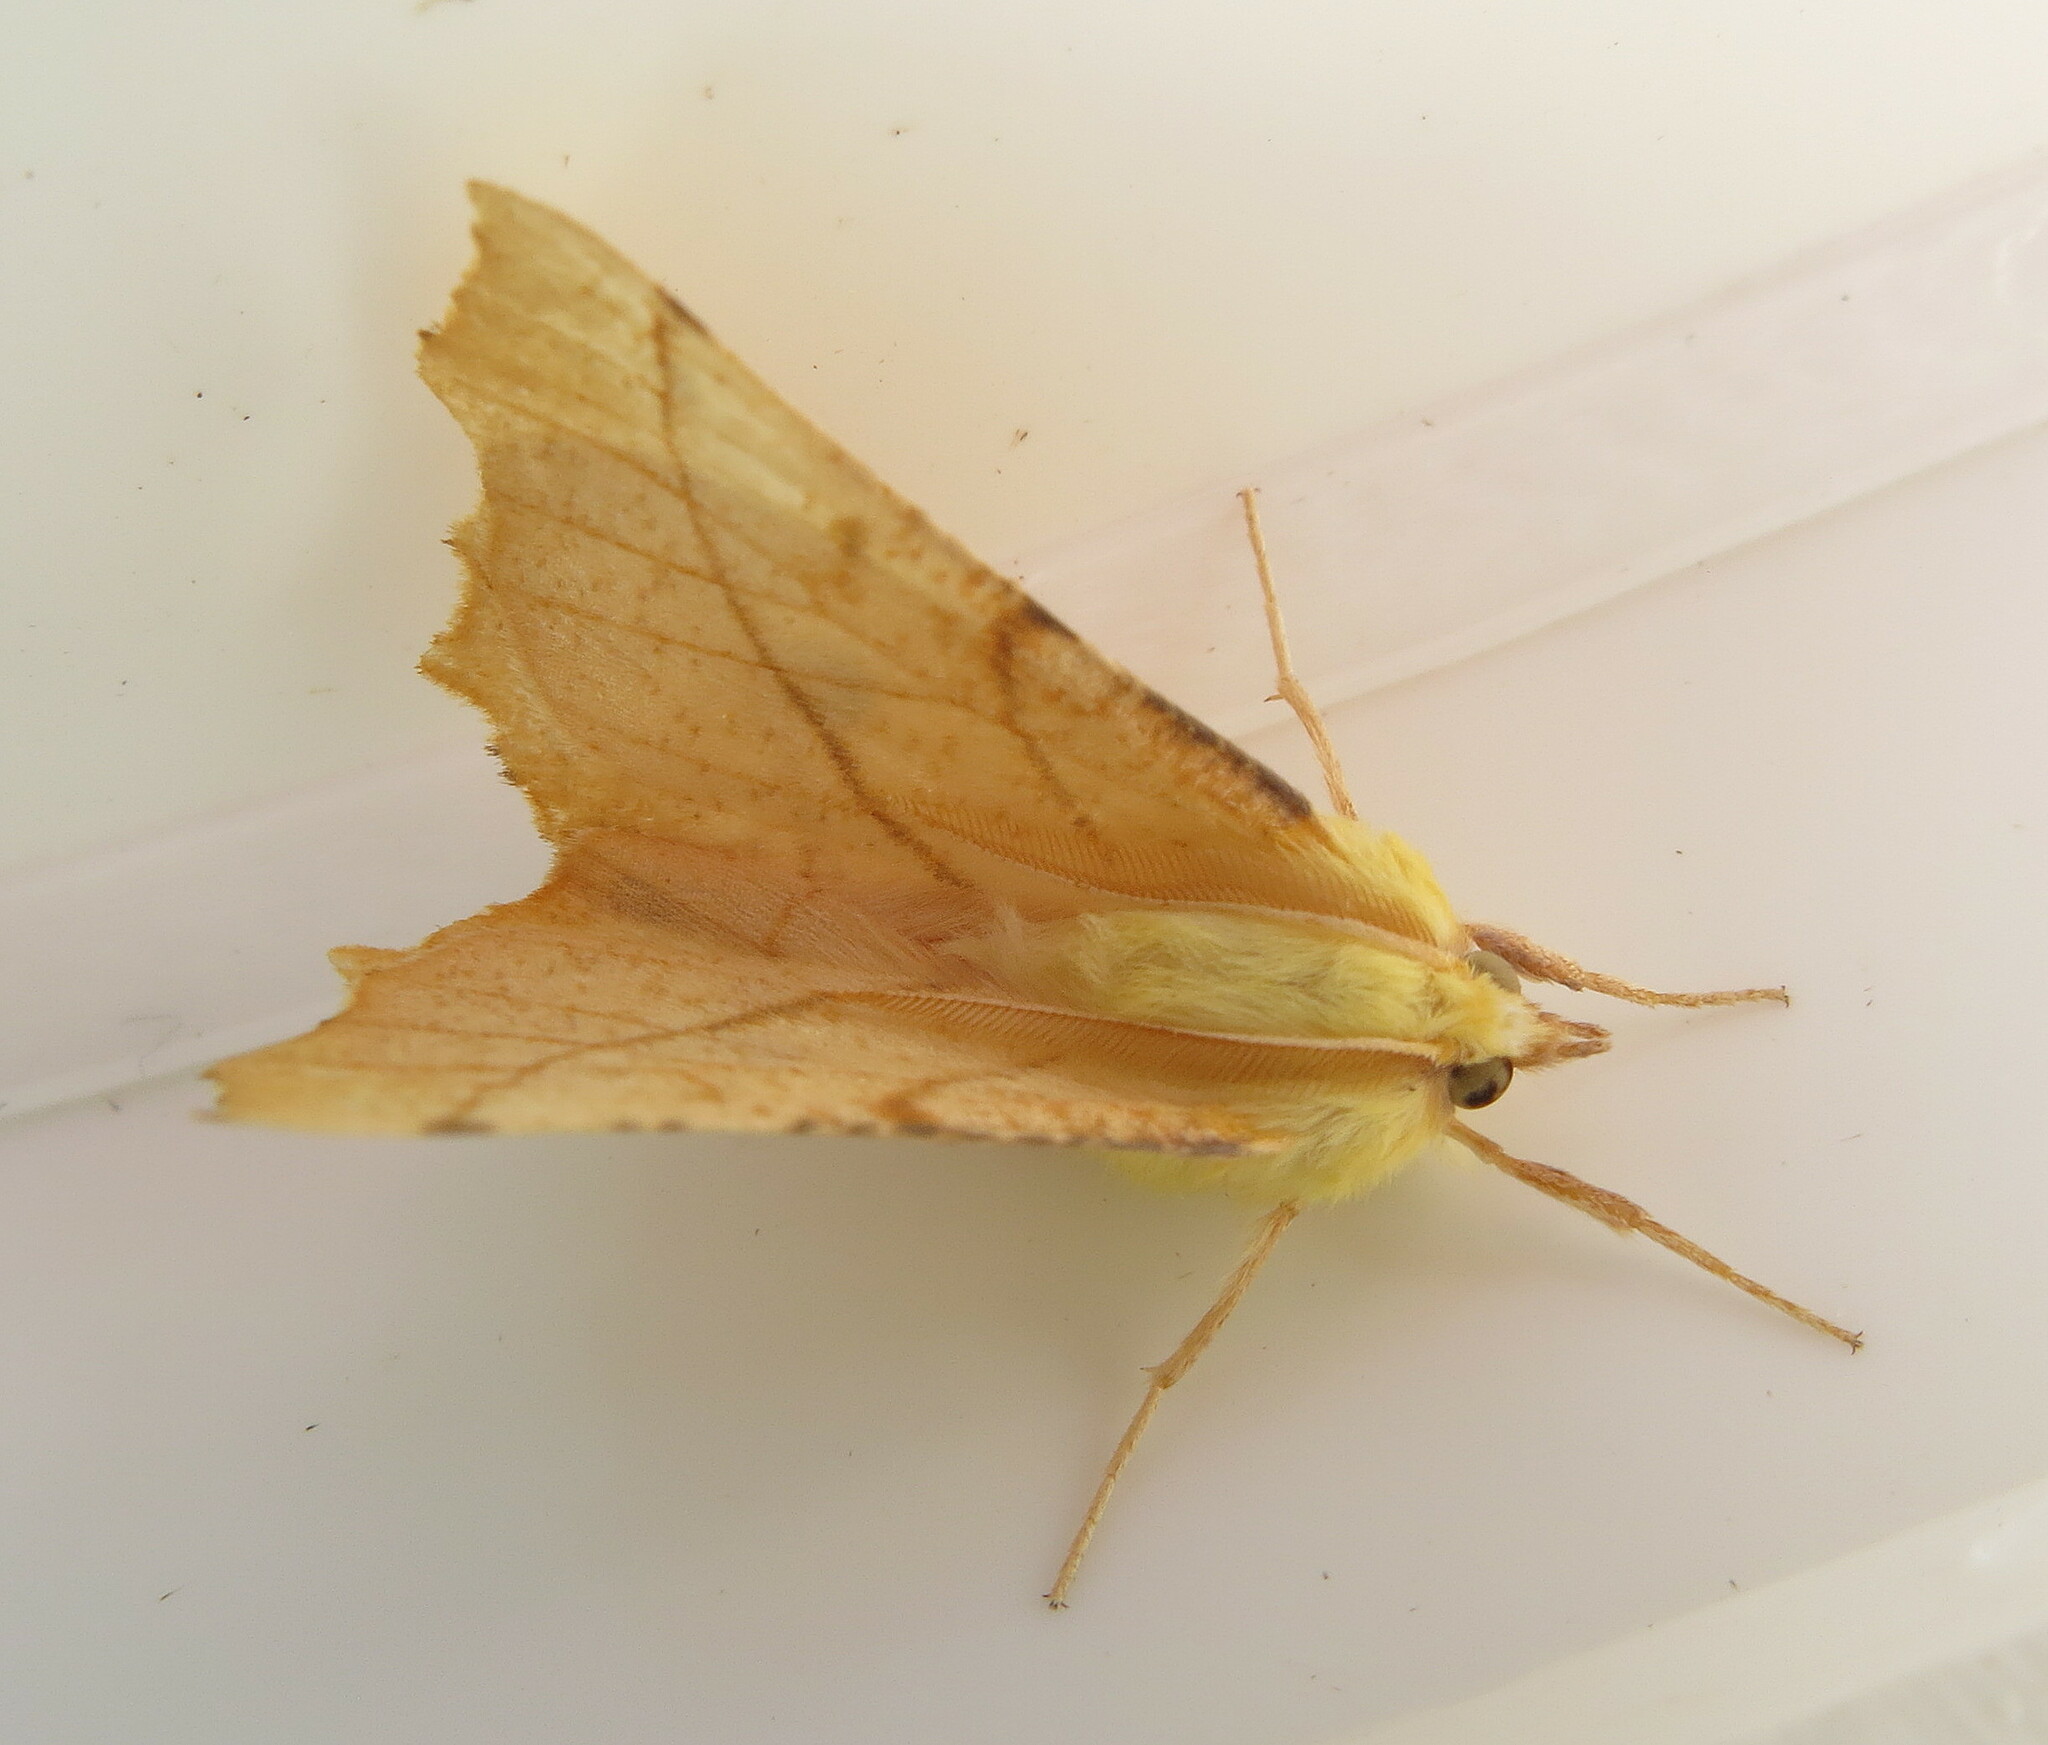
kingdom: Animalia
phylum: Arthropoda
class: Insecta
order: Lepidoptera
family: Geometridae
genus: Ennomos
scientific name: Ennomos alniaria
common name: Canary-shouldered thorn
